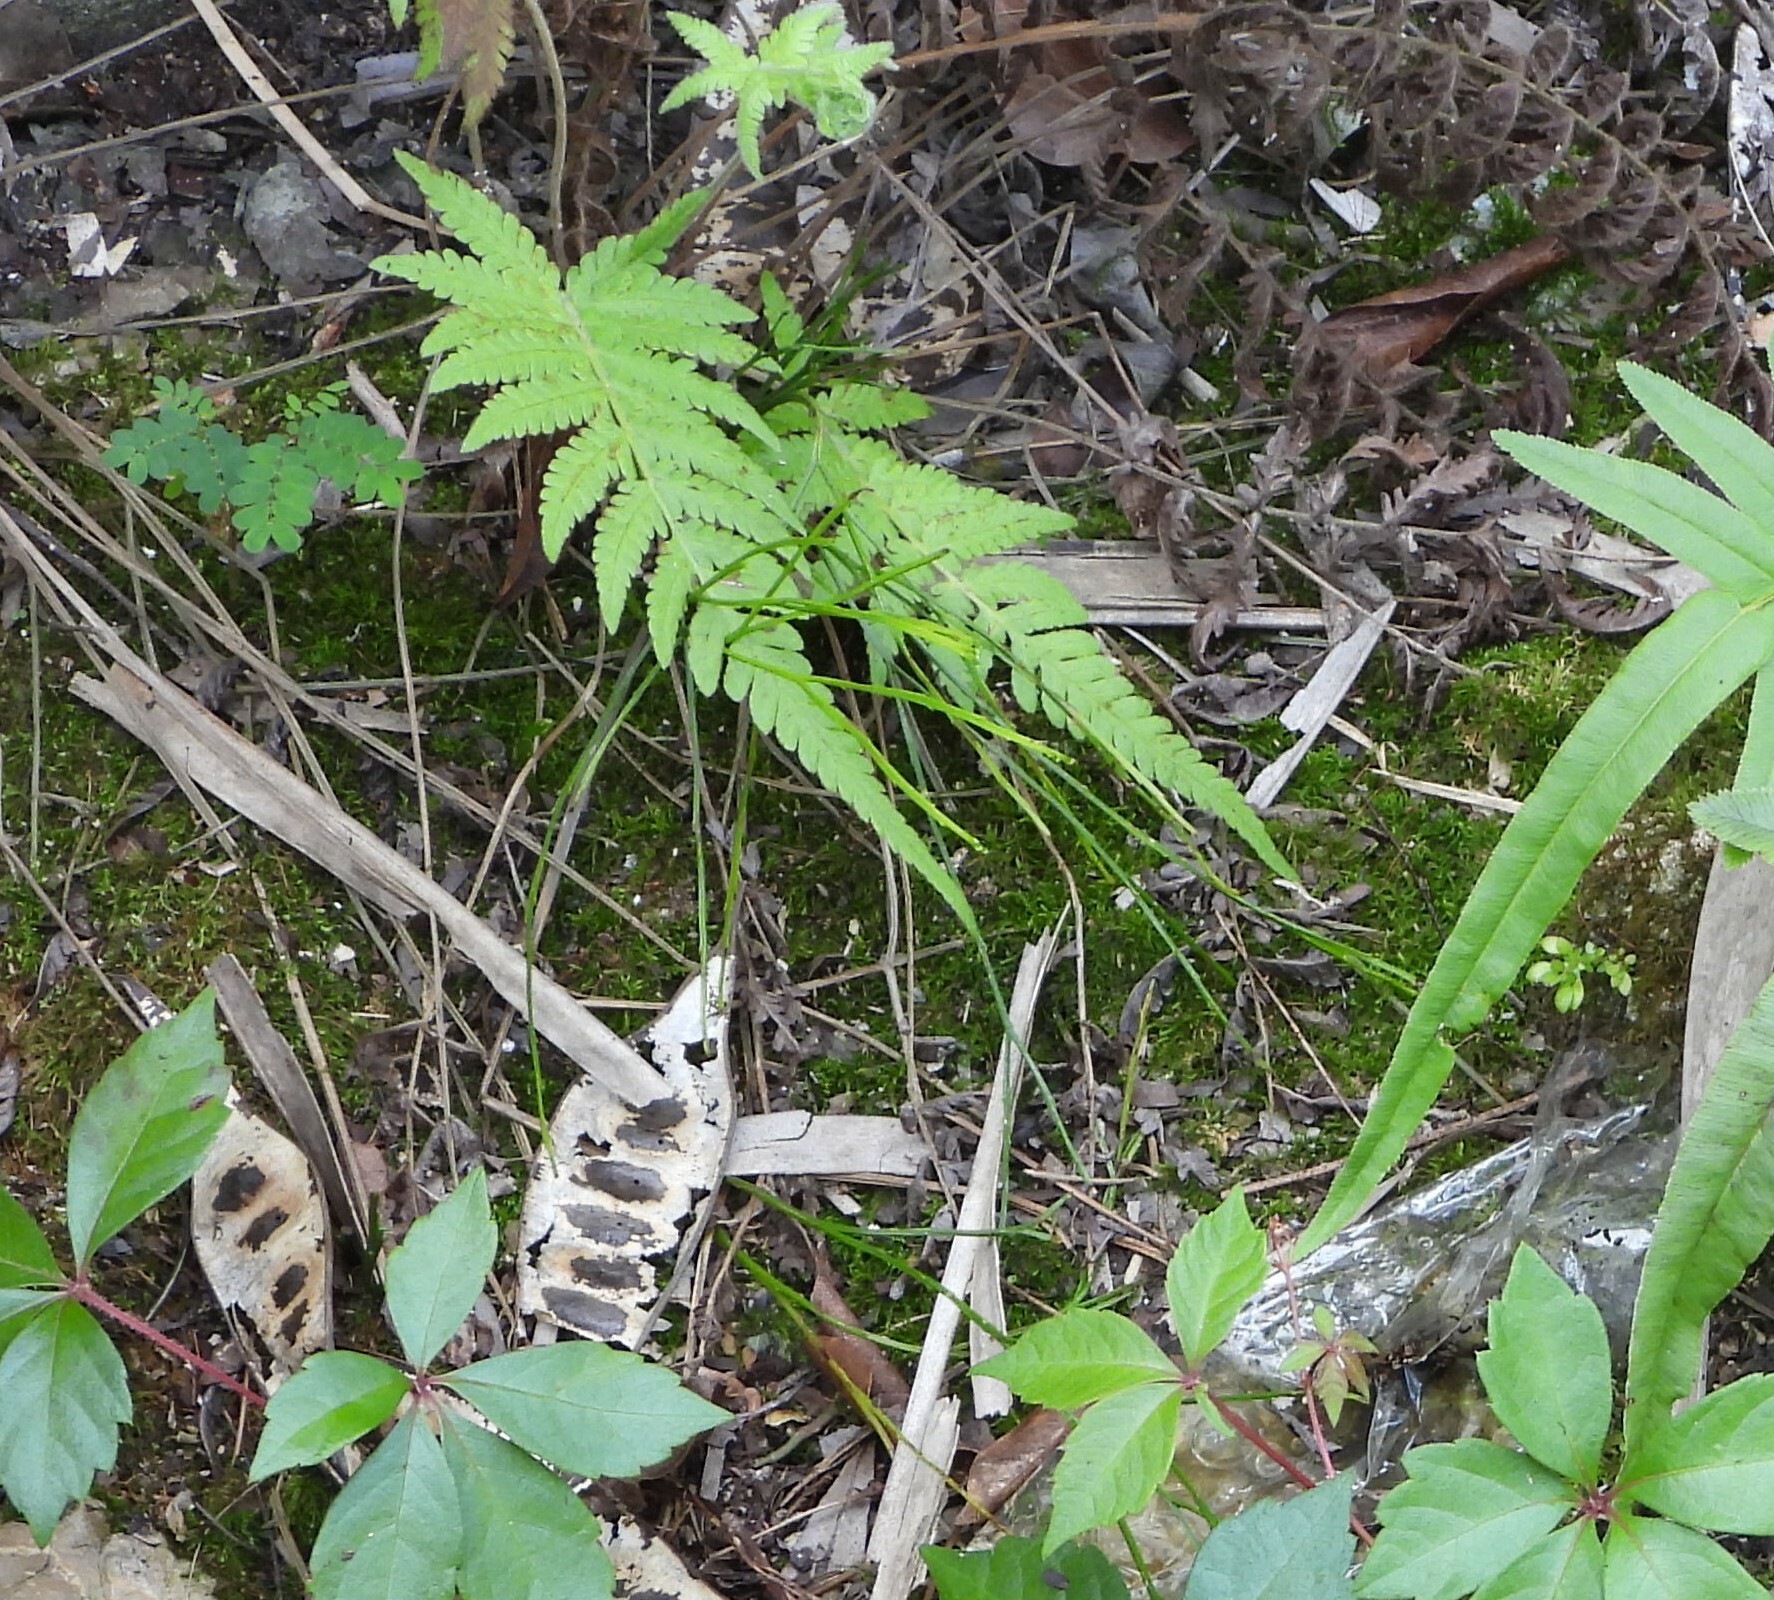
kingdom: Plantae
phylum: Tracheophyta
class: Polypodiopsida
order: Psilotales
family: Psilotaceae
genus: Psilotum
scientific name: Psilotum nudum
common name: Skeleton fork fern
